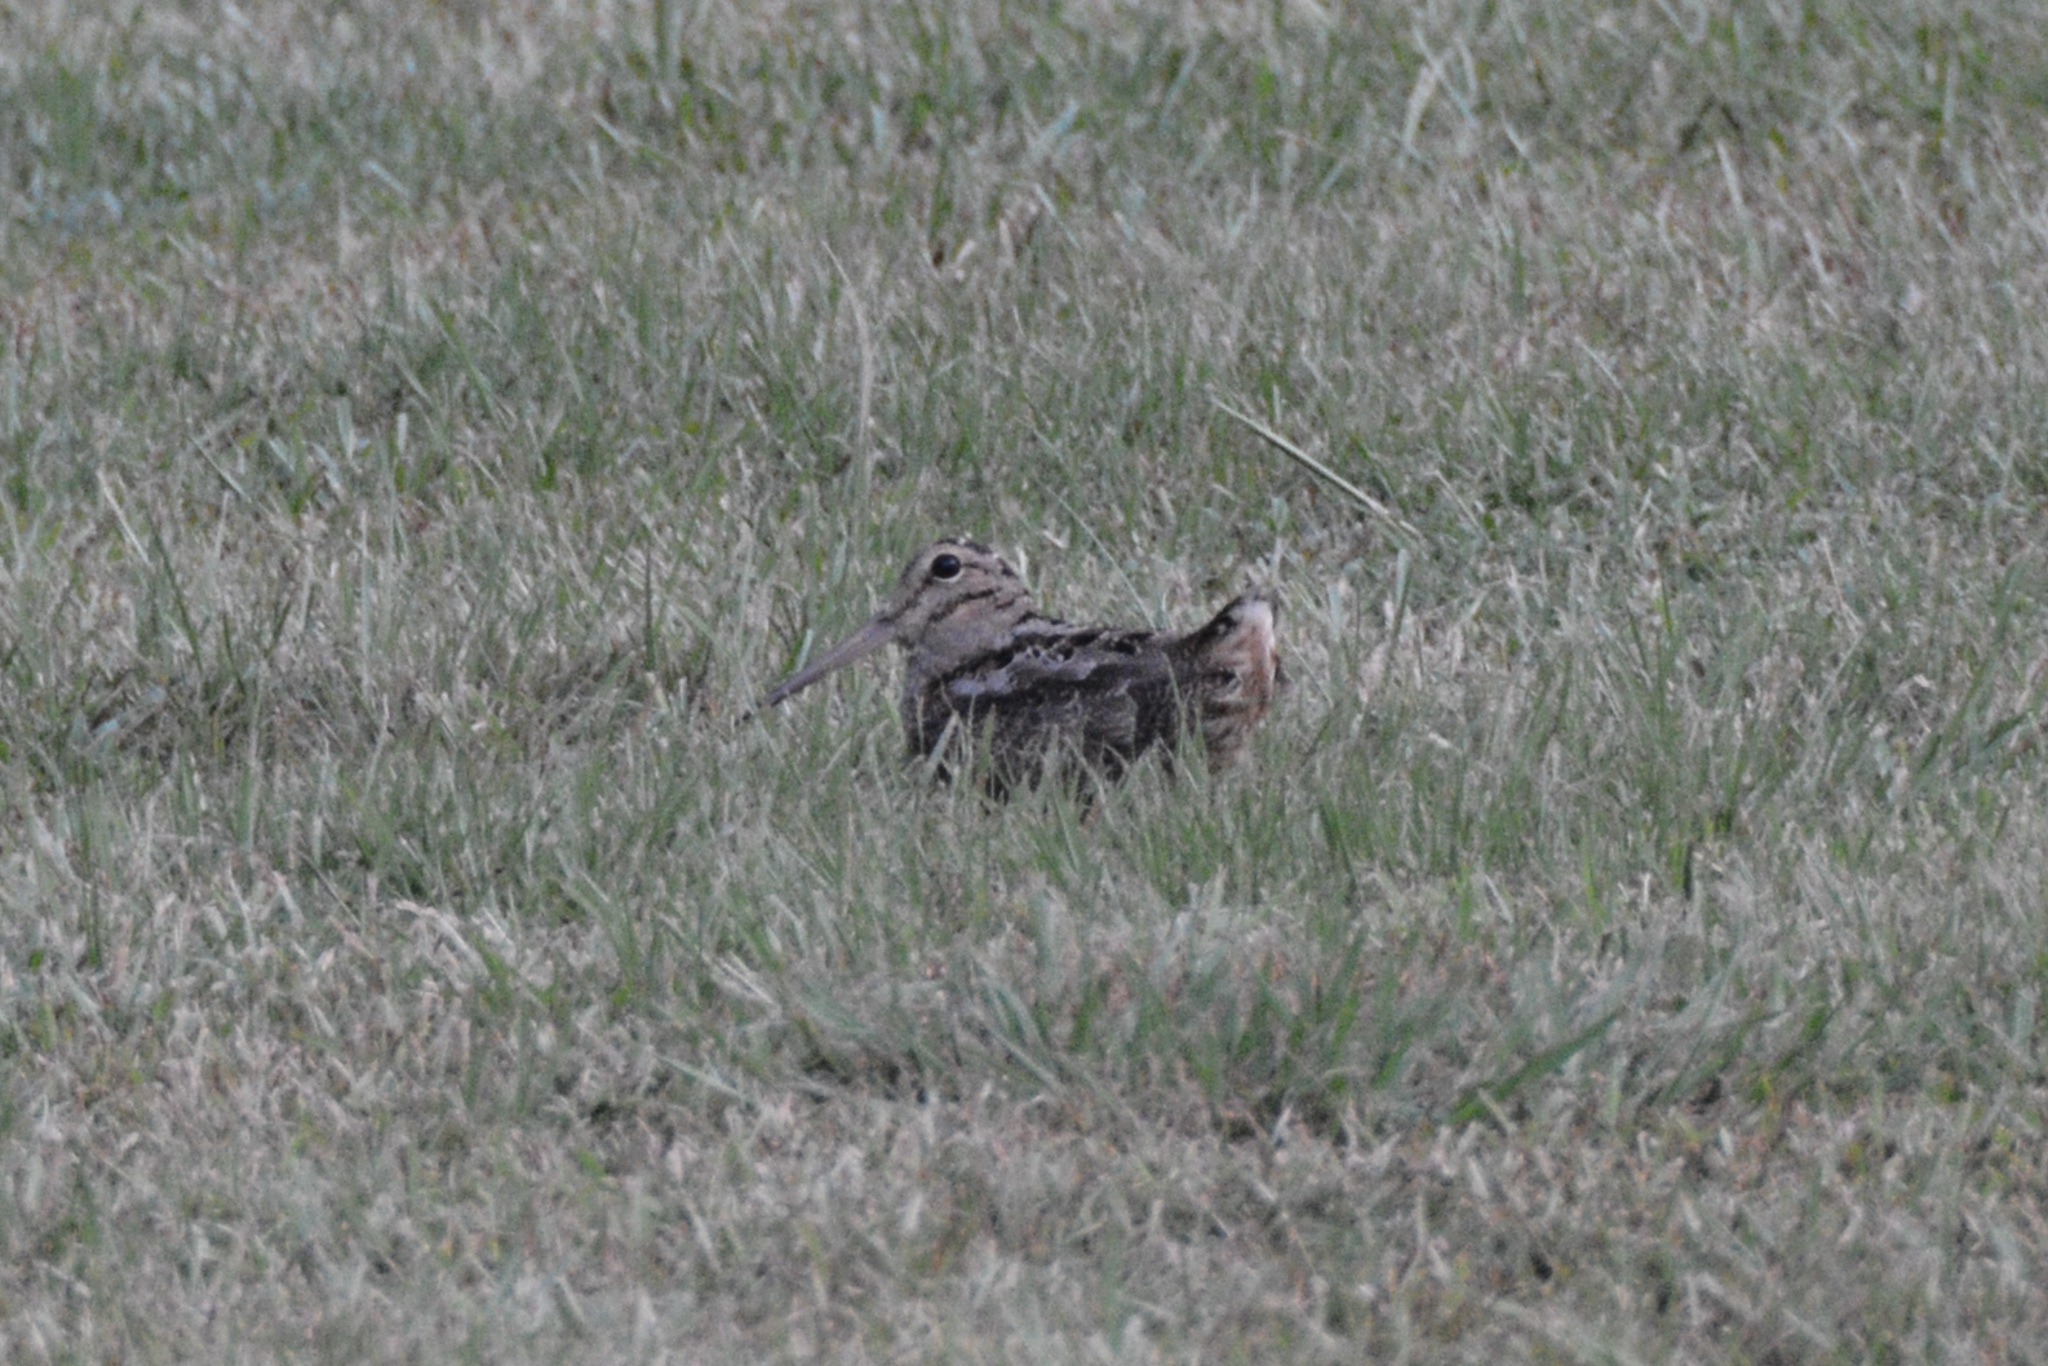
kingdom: Animalia
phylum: Chordata
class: Aves
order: Charadriiformes
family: Scolopacidae
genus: Scolopax
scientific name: Scolopax minor
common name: American woodcock
